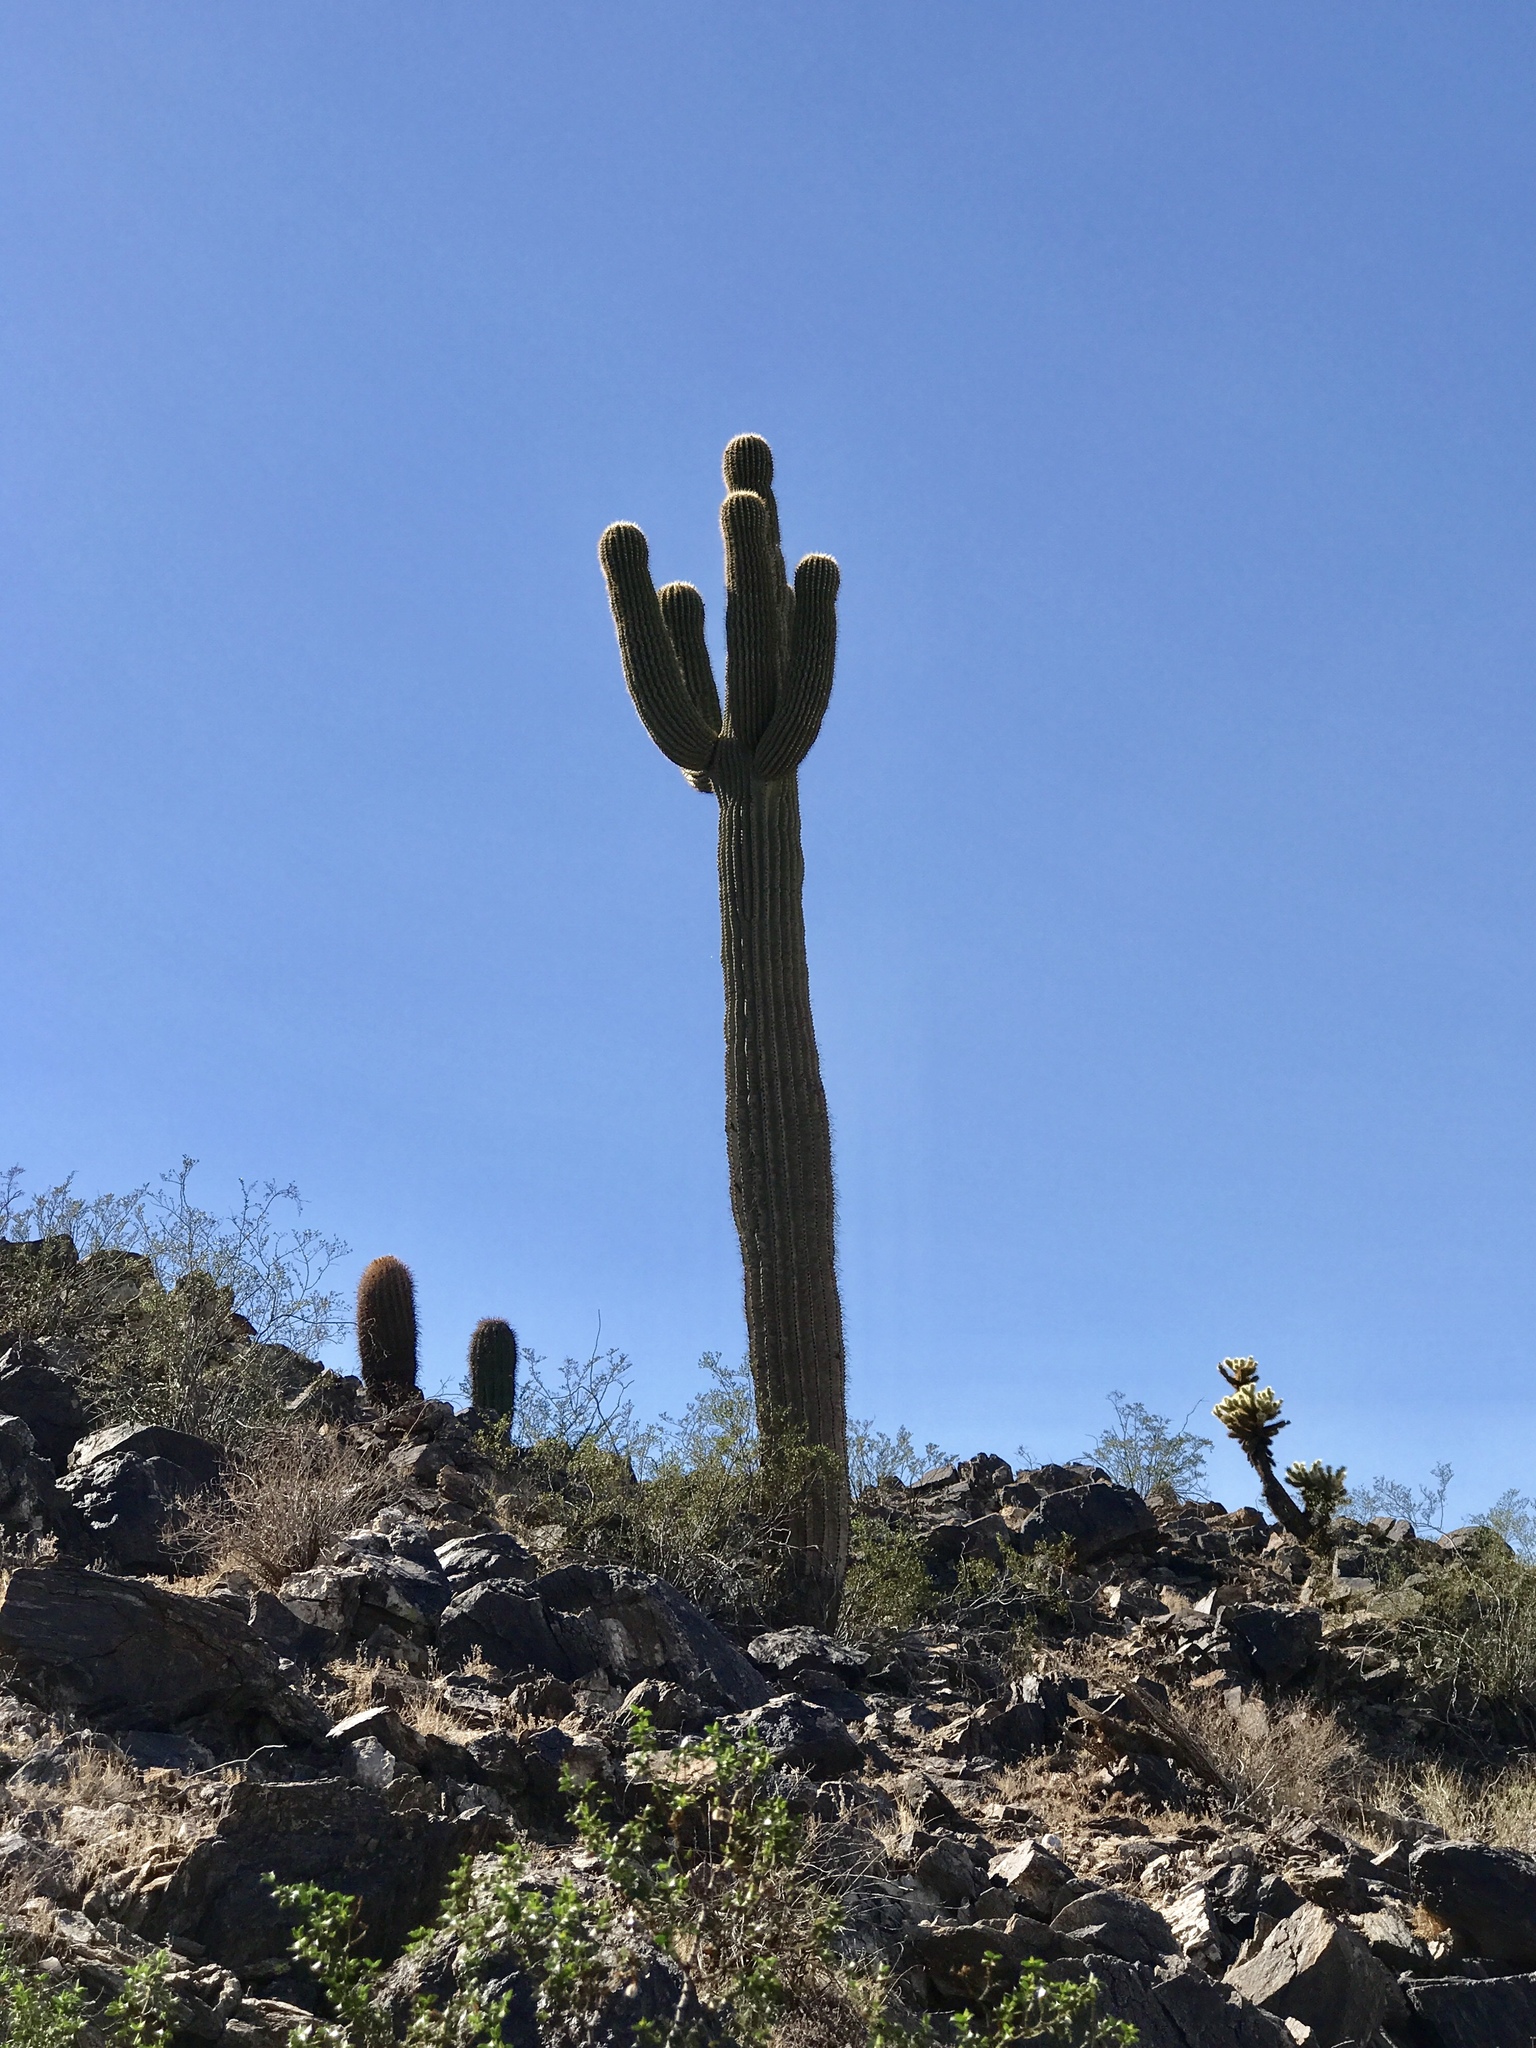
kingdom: Plantae
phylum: Tracheophyta
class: Magnoliopsida
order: Caryophyllales
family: Cactaceae
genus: Carnegiea
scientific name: Carnegiea gigantea
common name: Saguaro
